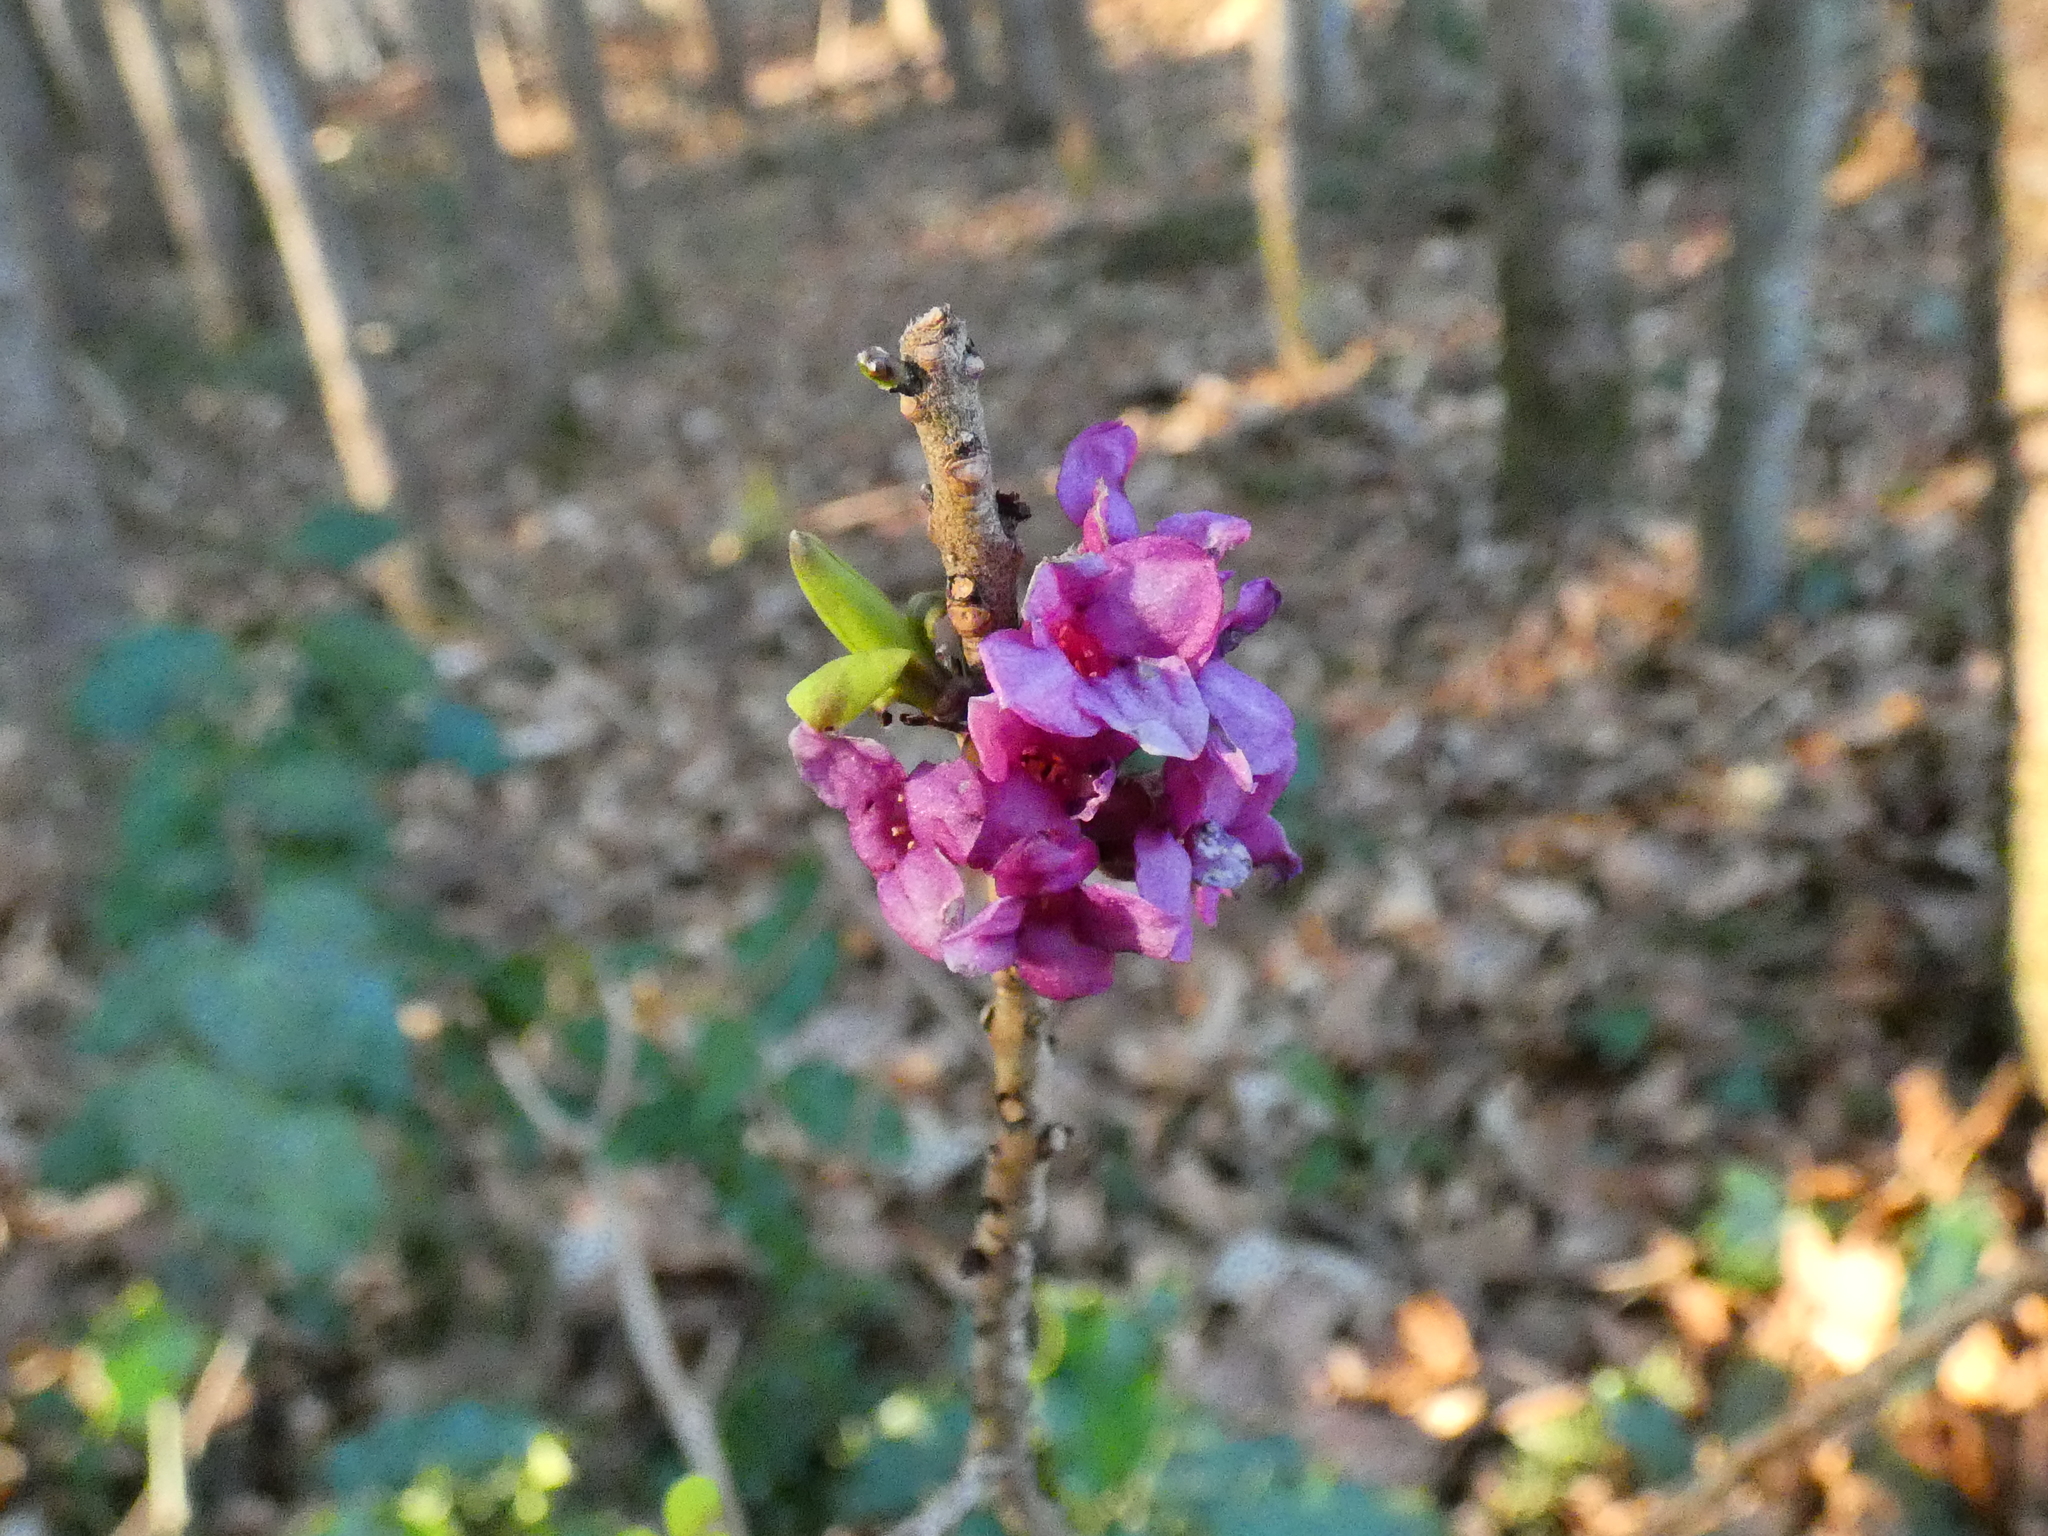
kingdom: Plantae
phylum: Tracheophyta
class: Magnoliopsida
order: Malvales
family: Thymelaeaceae
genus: Daphne
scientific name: Daphne mezereum
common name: Mezereon
